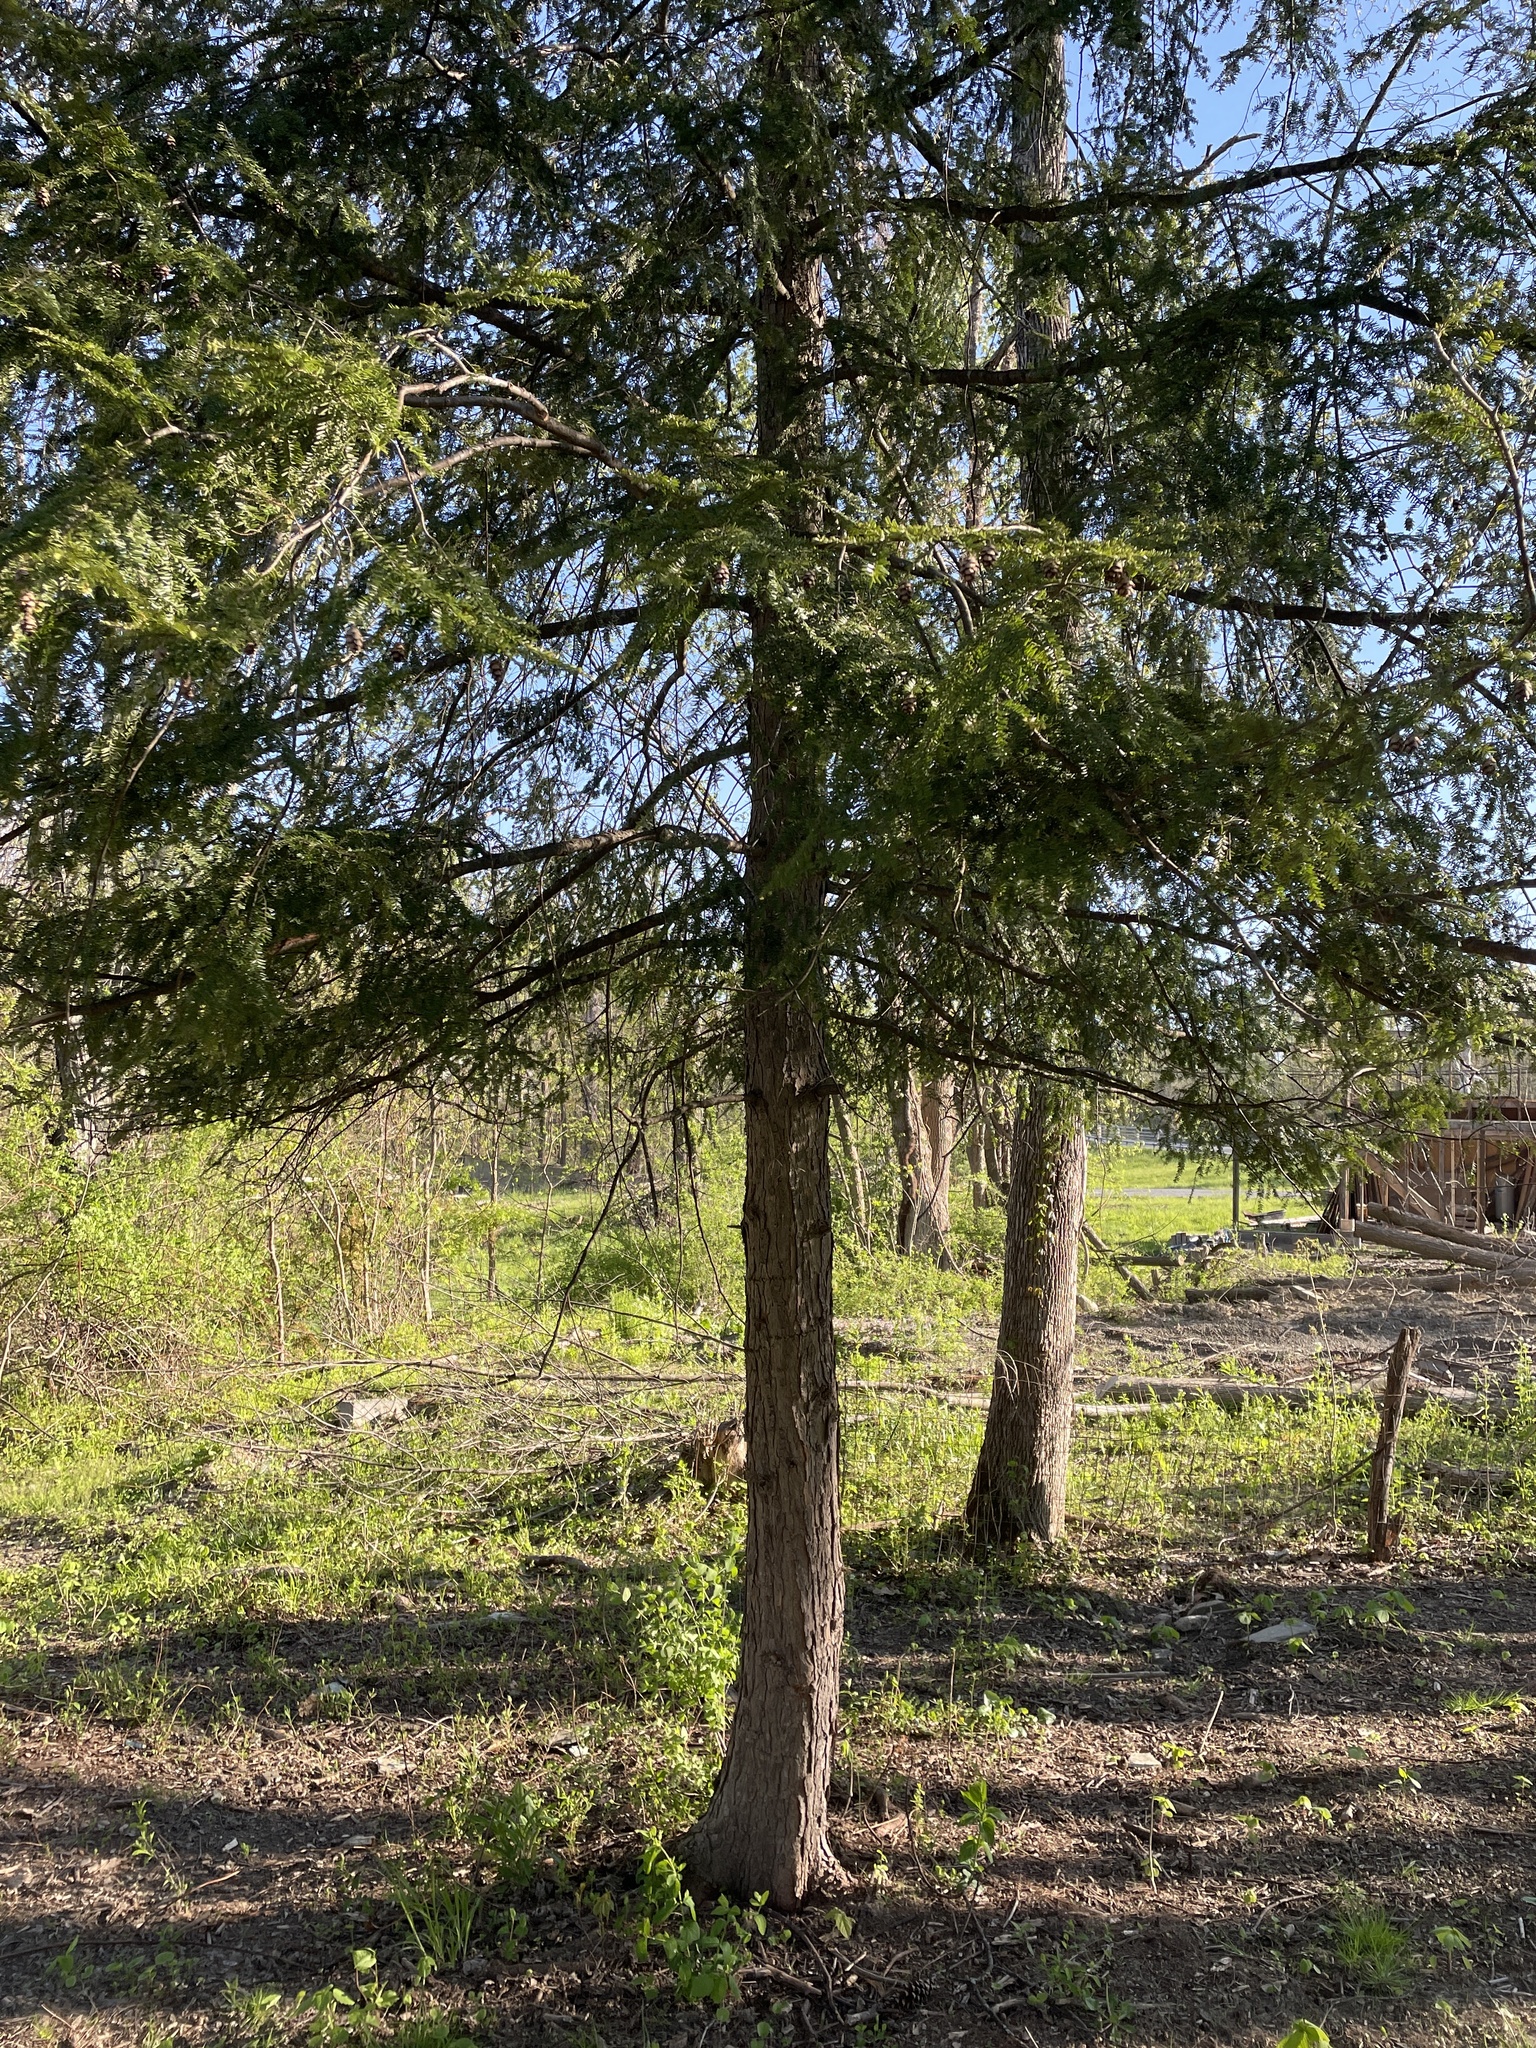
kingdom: Plantae
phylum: Tracheophyta
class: Pinopsida
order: Pinales
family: Pinaceae
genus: Tsuga
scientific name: Tsuga canadensis
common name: Eastern hemlock
